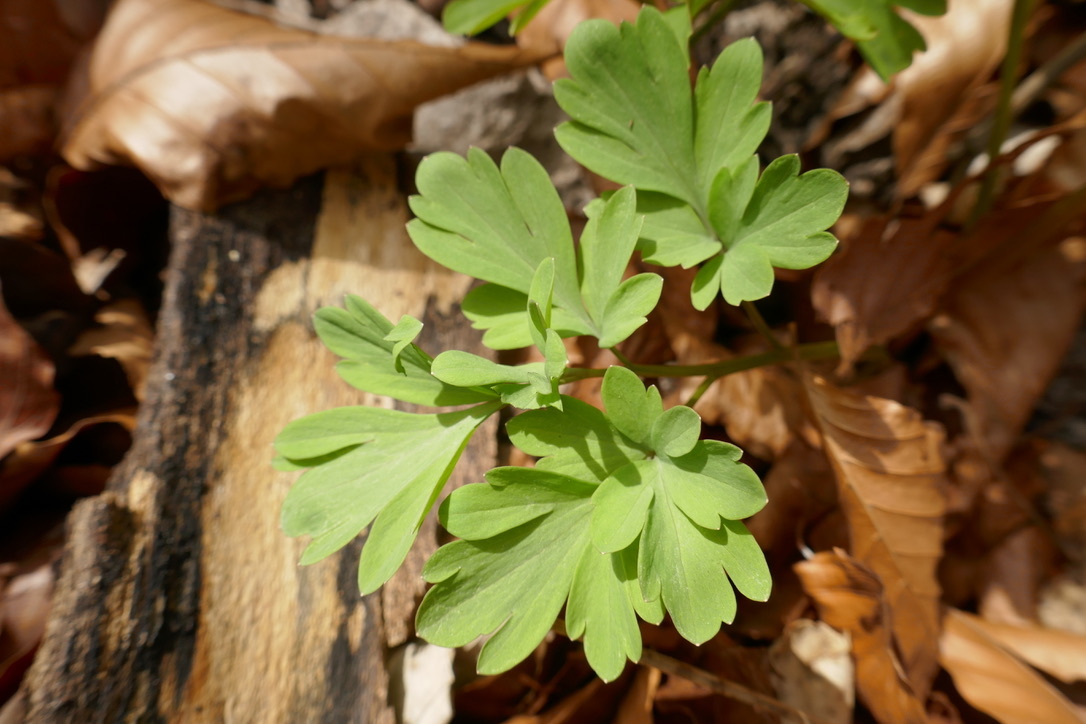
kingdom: Plantae
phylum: Tracheophyta
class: Magnoliopsida
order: Ranunculales
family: Papaveraceae
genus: Corydalis
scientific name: Corydalis cava
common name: Hollowroot
